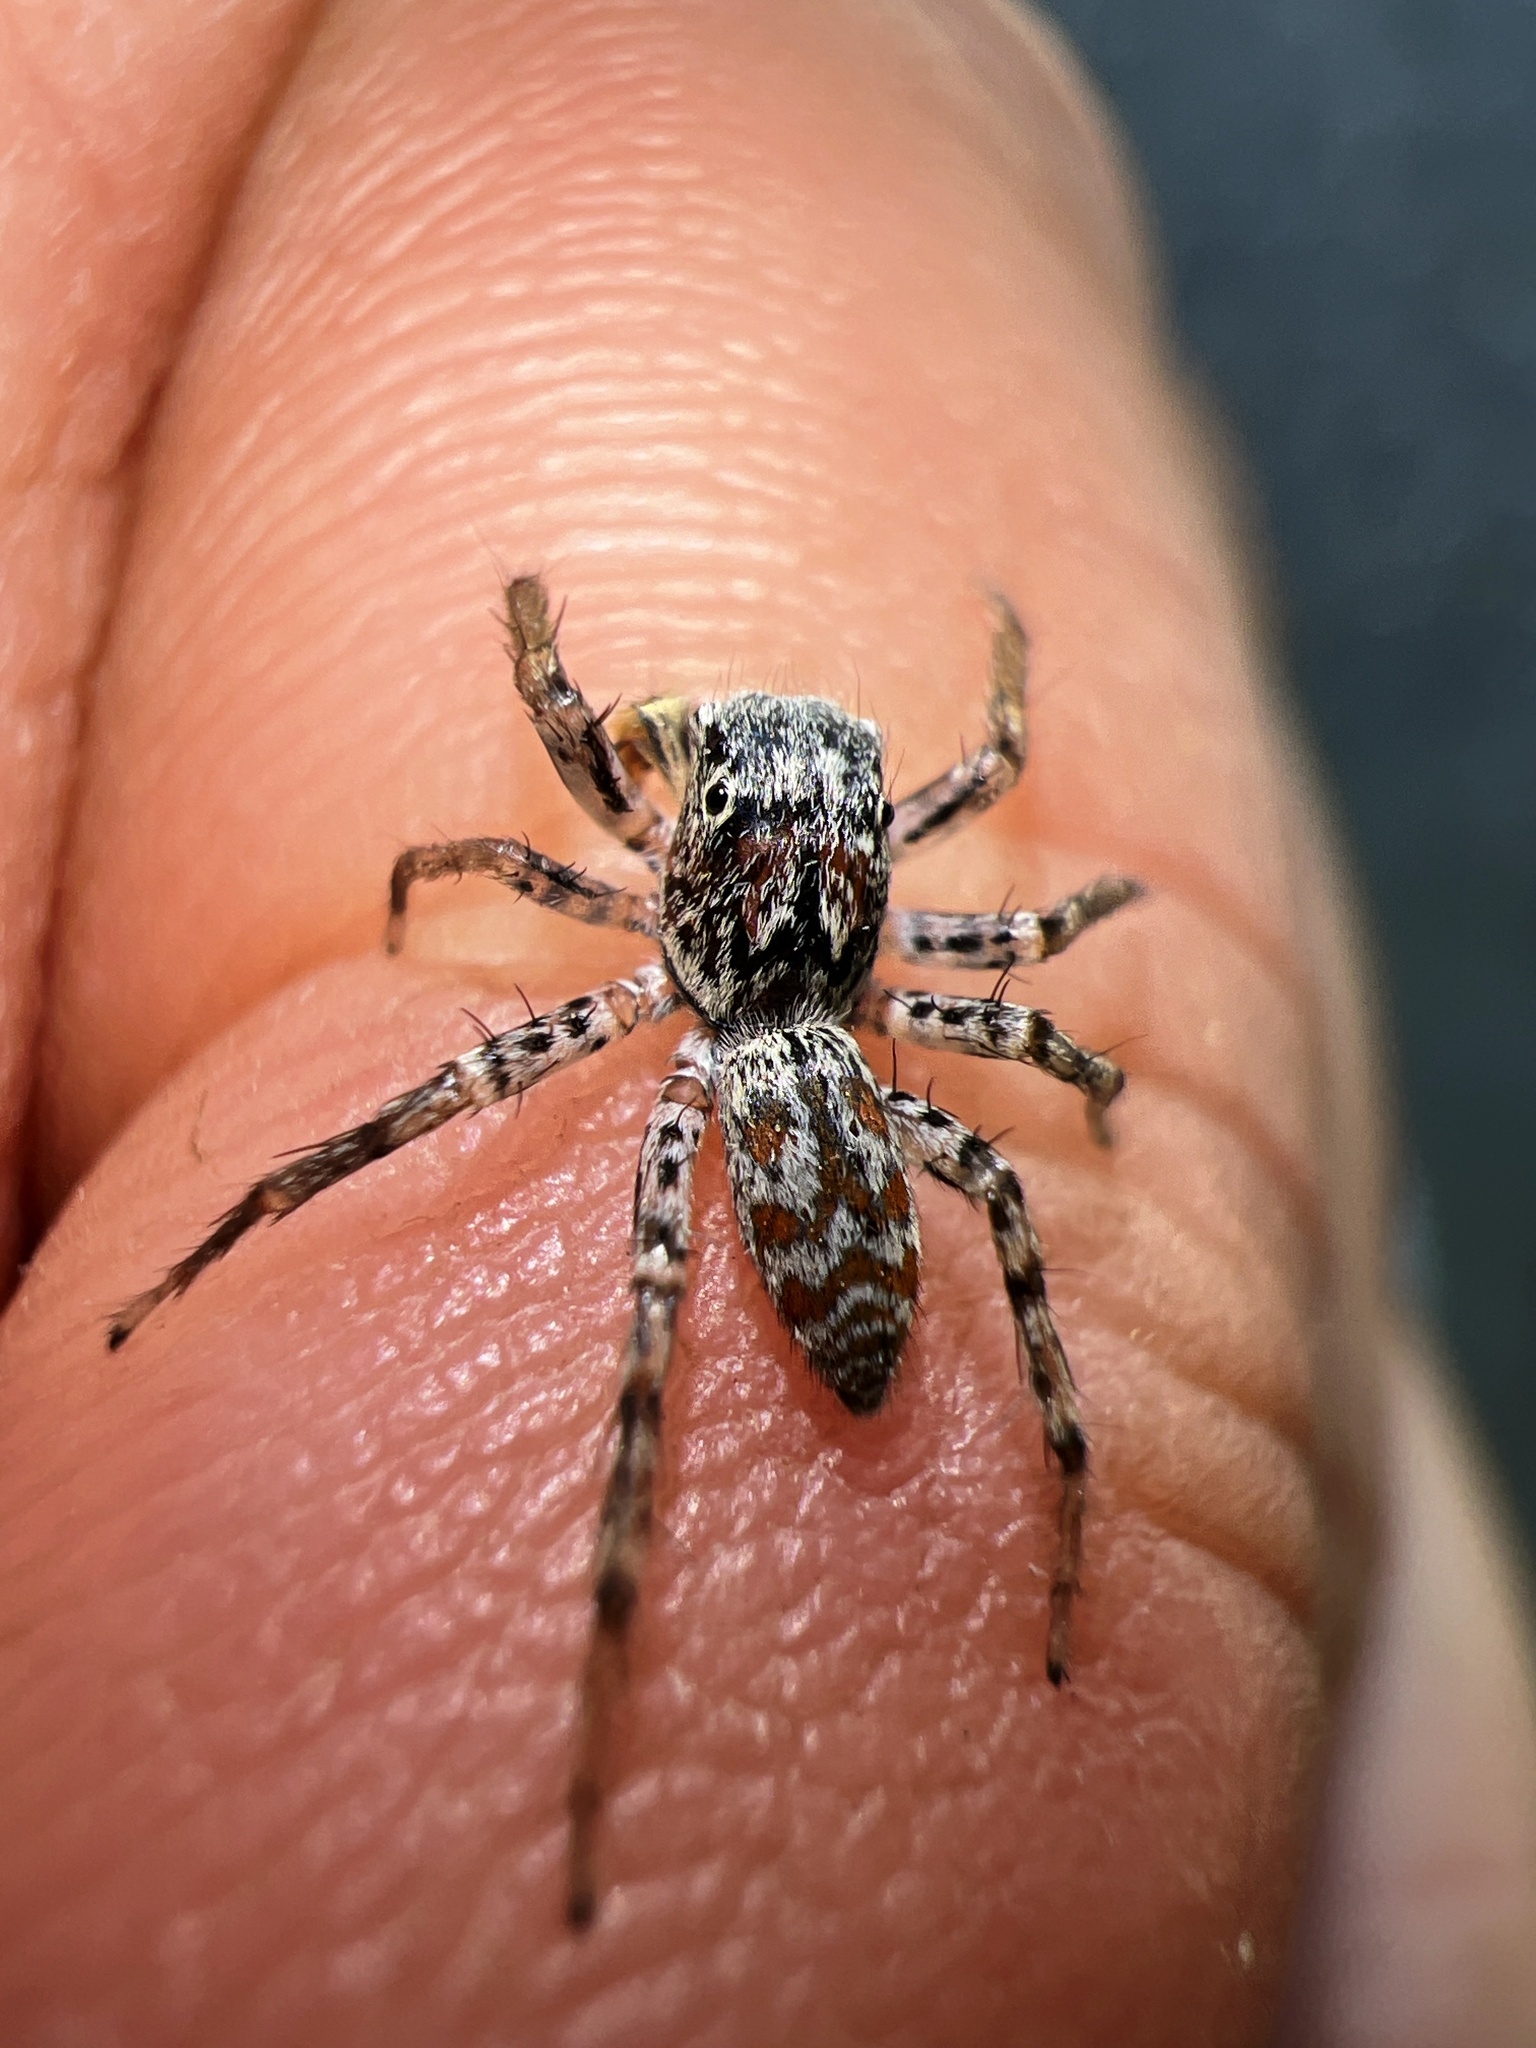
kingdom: Animalia
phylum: Arthropoda
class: Arachnida
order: Araneae
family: Salticidae
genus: Maevia
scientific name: Maevia inclemens
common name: Dimorphic jumper
